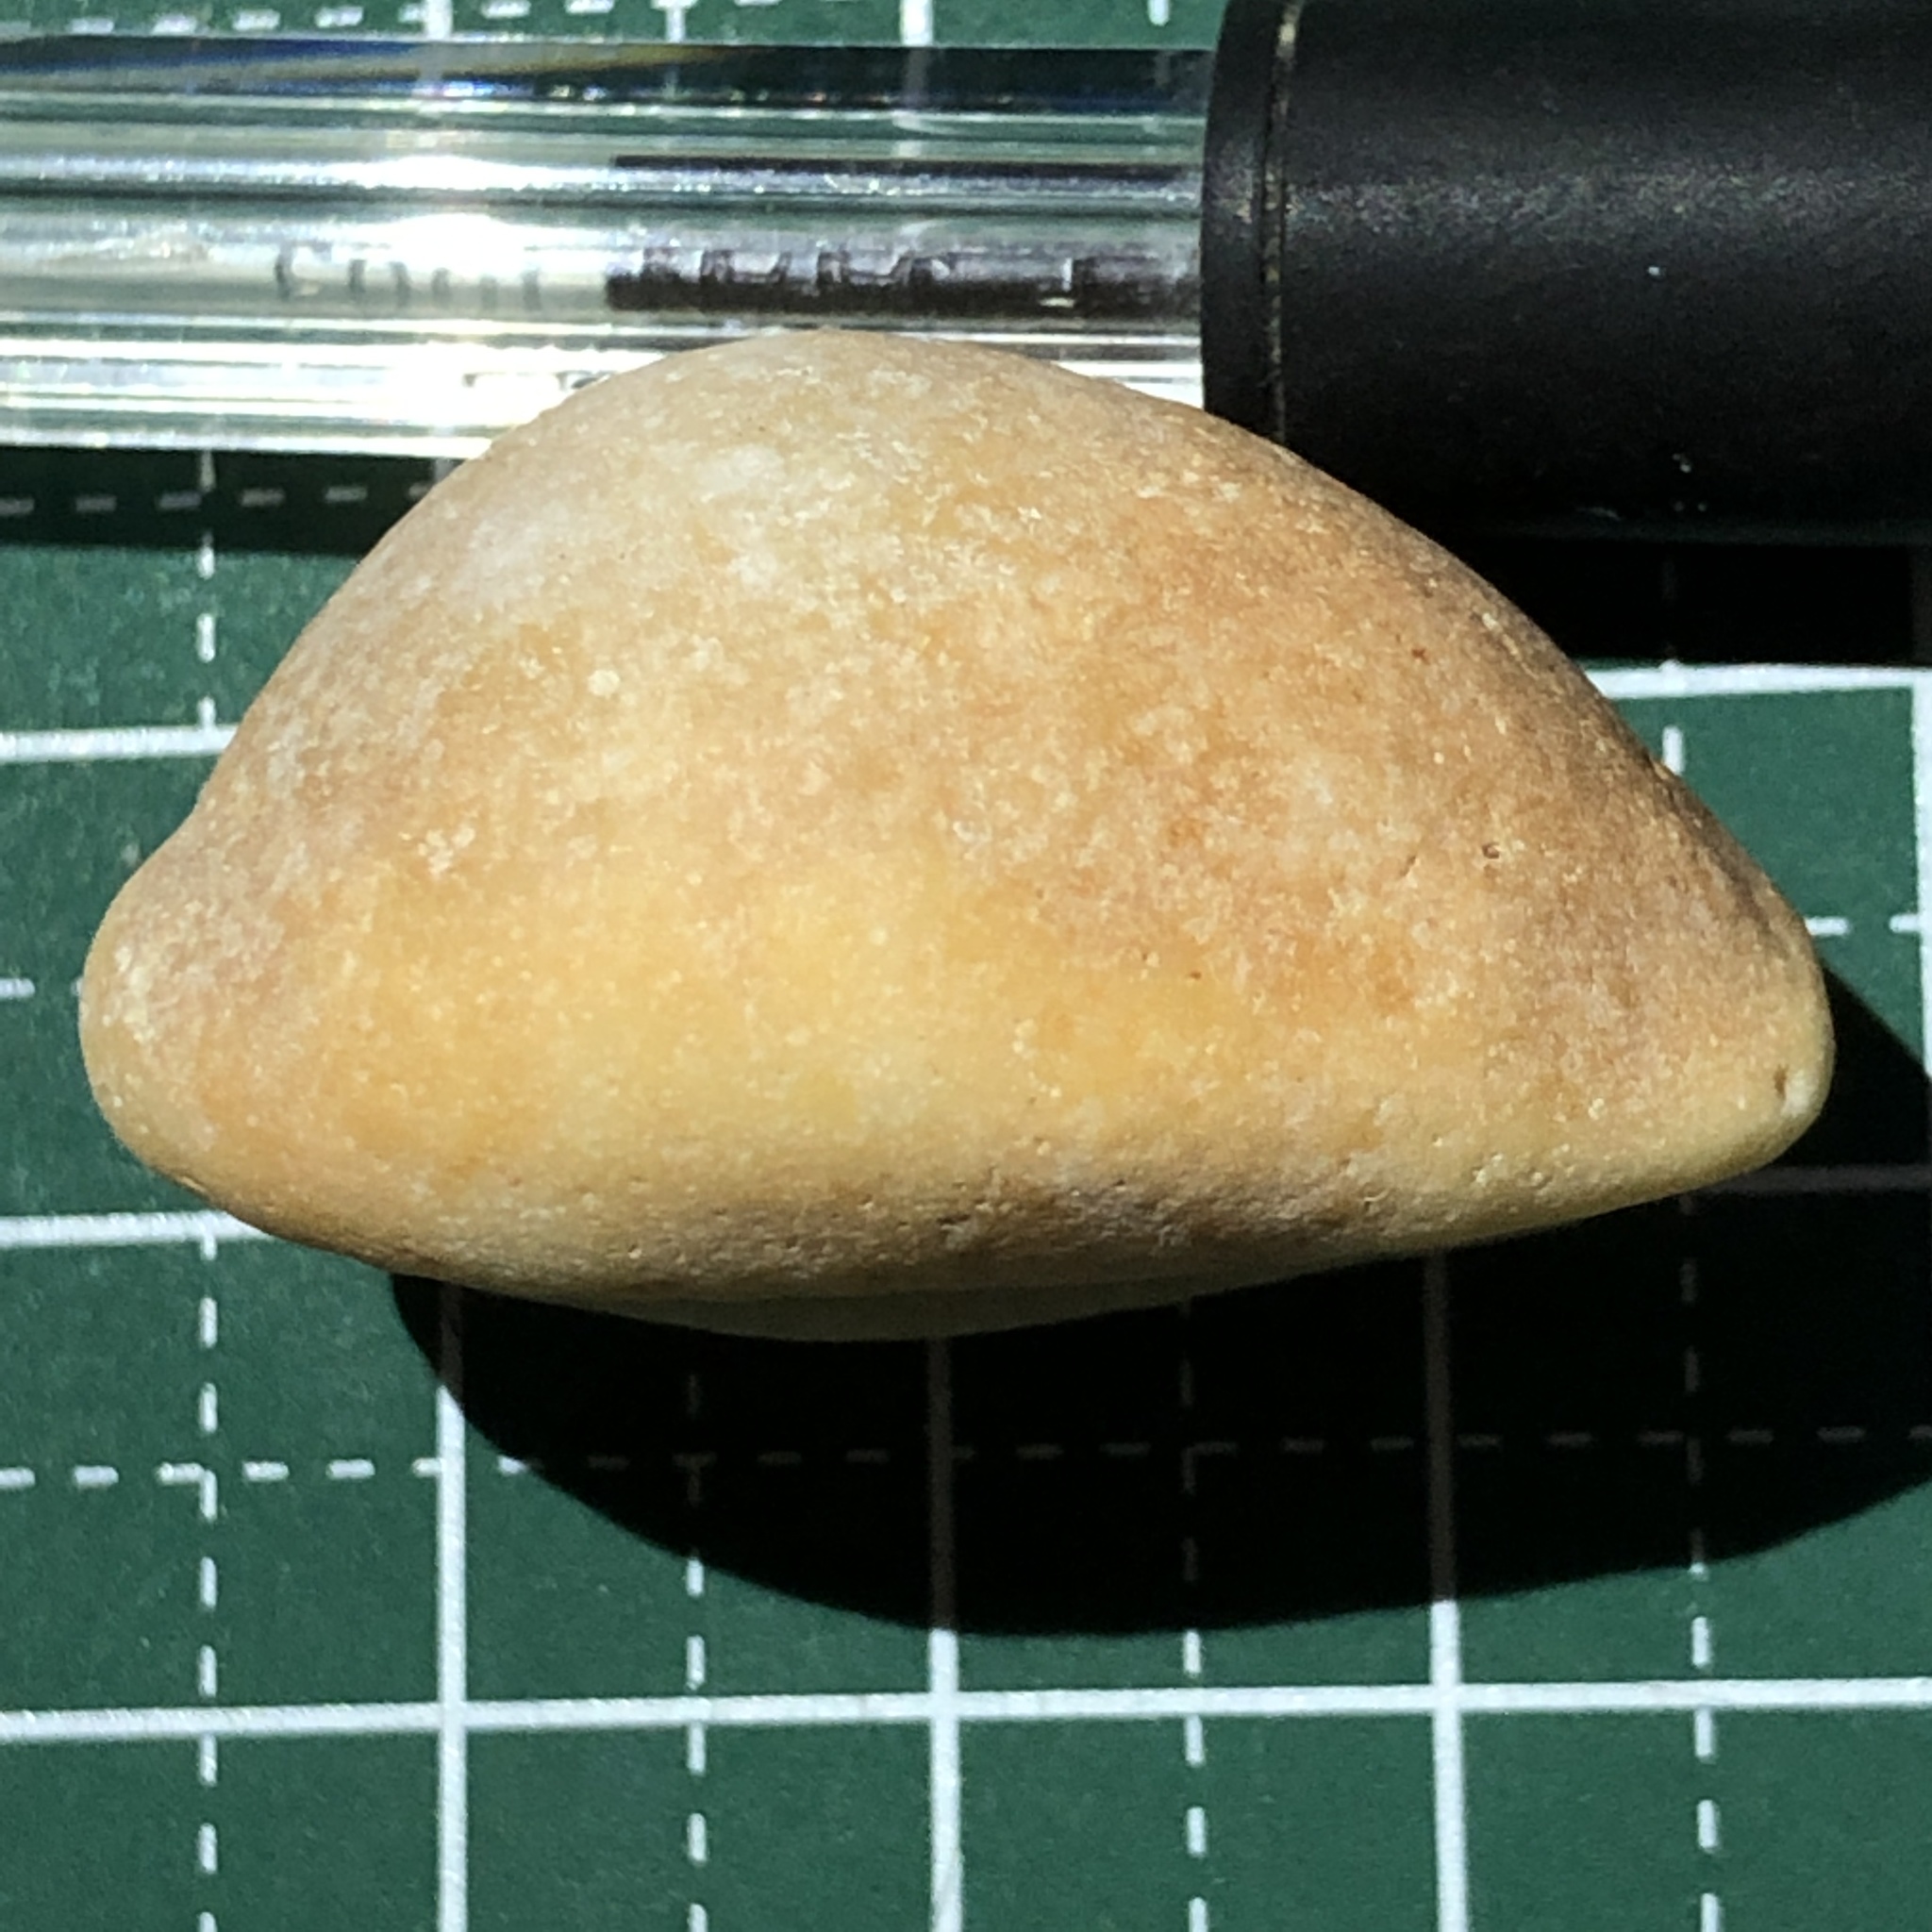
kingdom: Animalia
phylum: Mollusca
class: Gastropoda
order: Littorinimorpha
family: Cypraeidae
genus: Lyncina
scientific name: Lyncina carneola
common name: Purple-mouthed cowry
